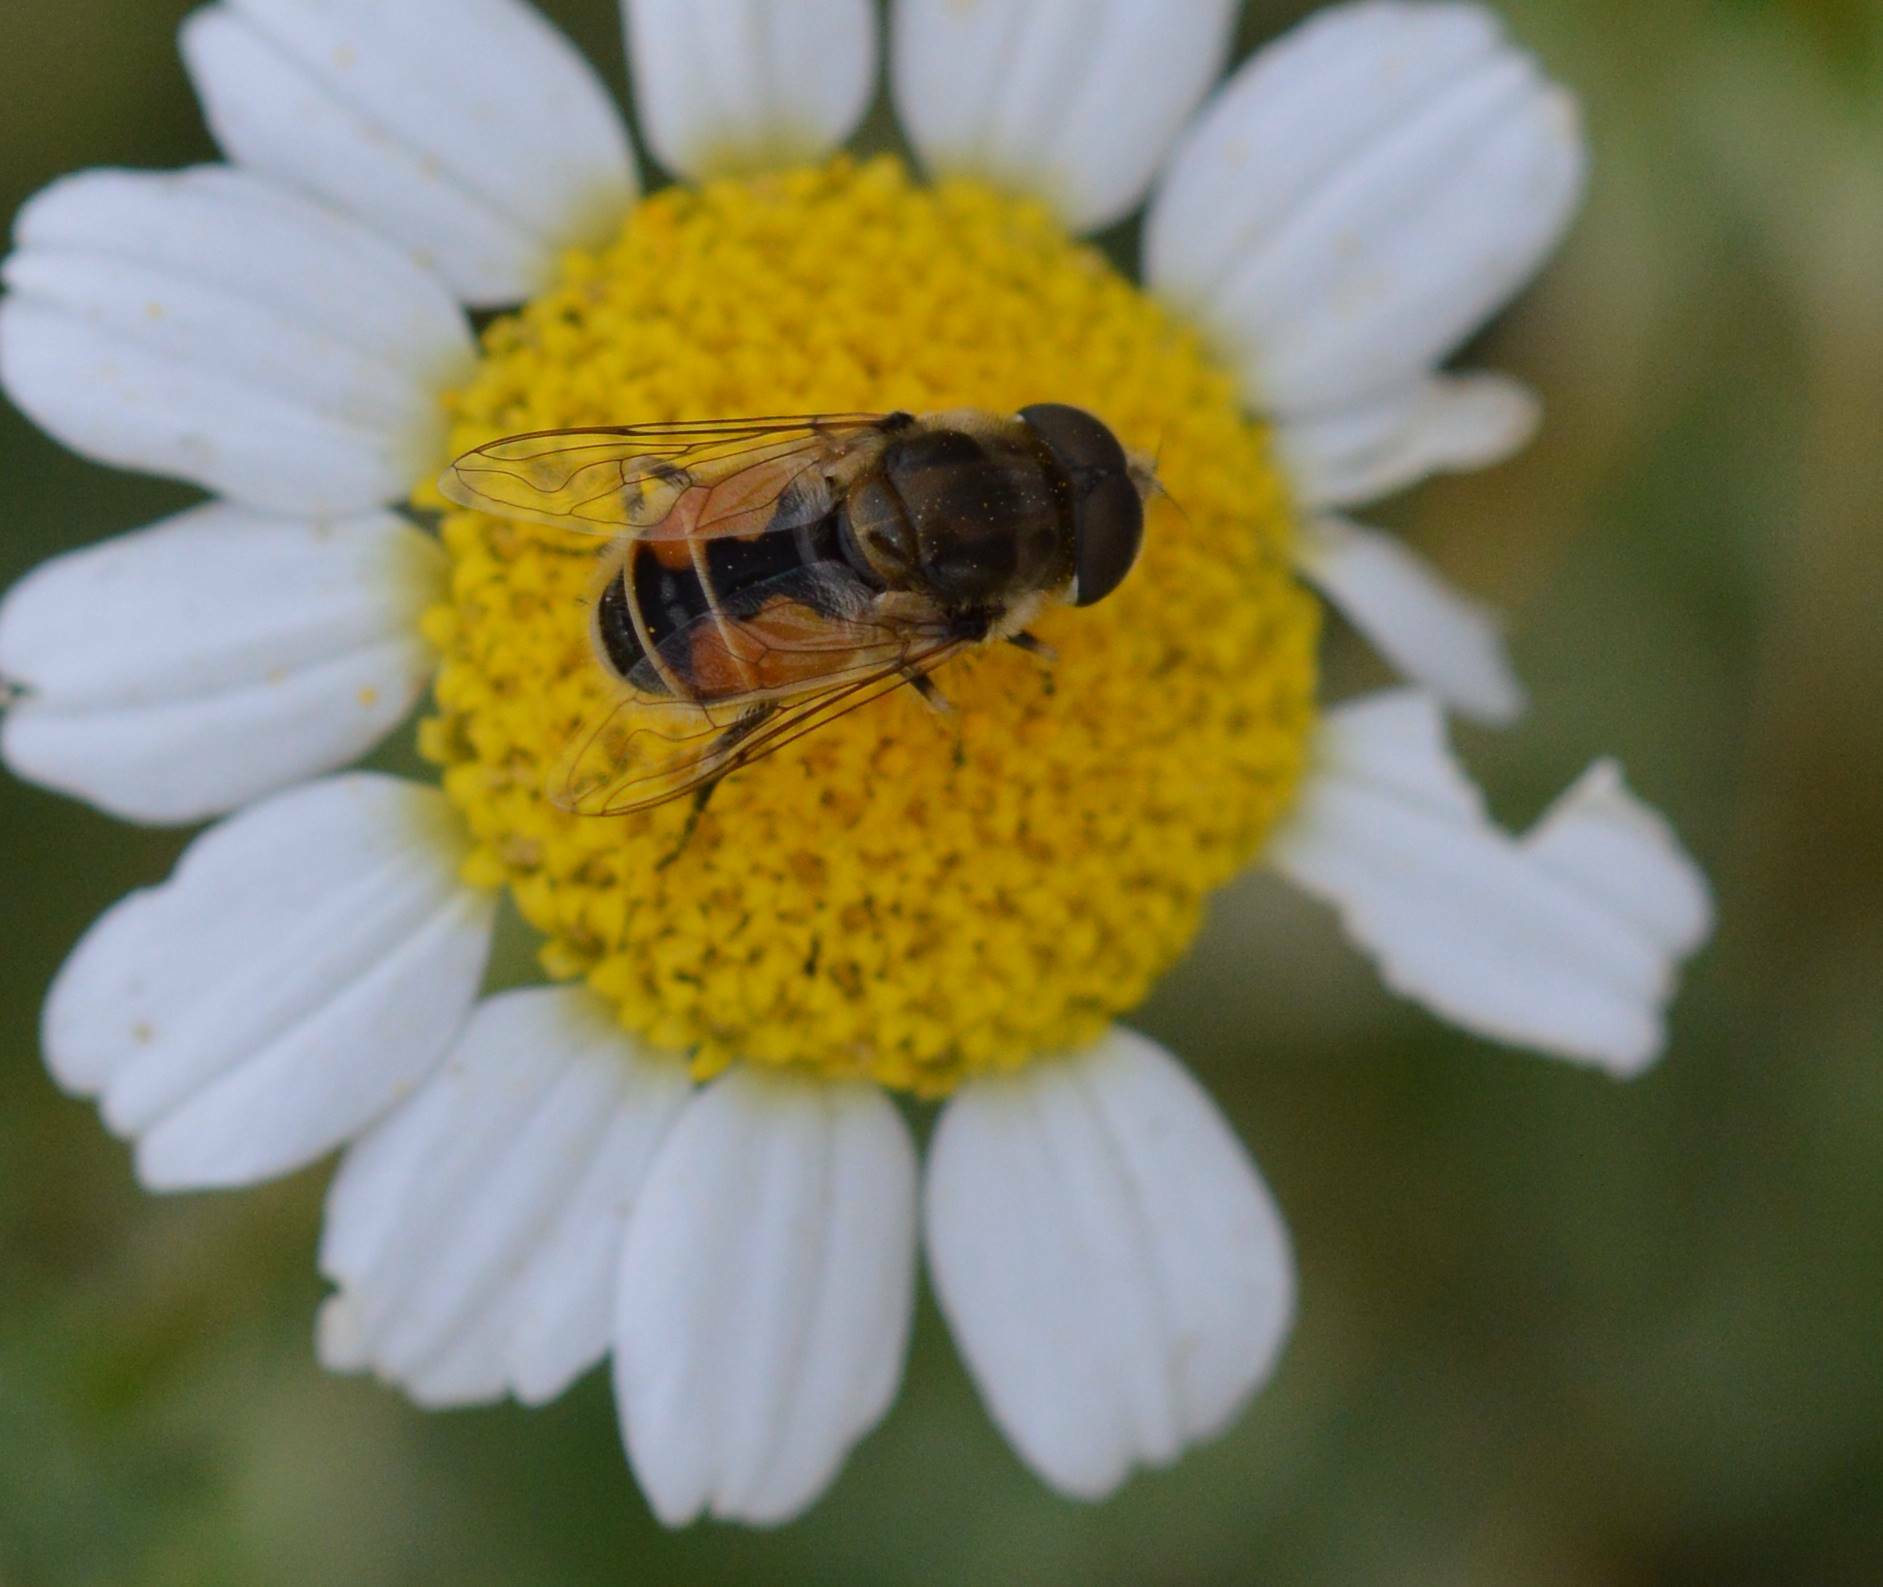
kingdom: Animalia
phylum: Arthropoda
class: Insecta
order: Diptera
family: Syrphidae
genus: Eristalis
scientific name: Eristalis arbustorum
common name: Hover fly
